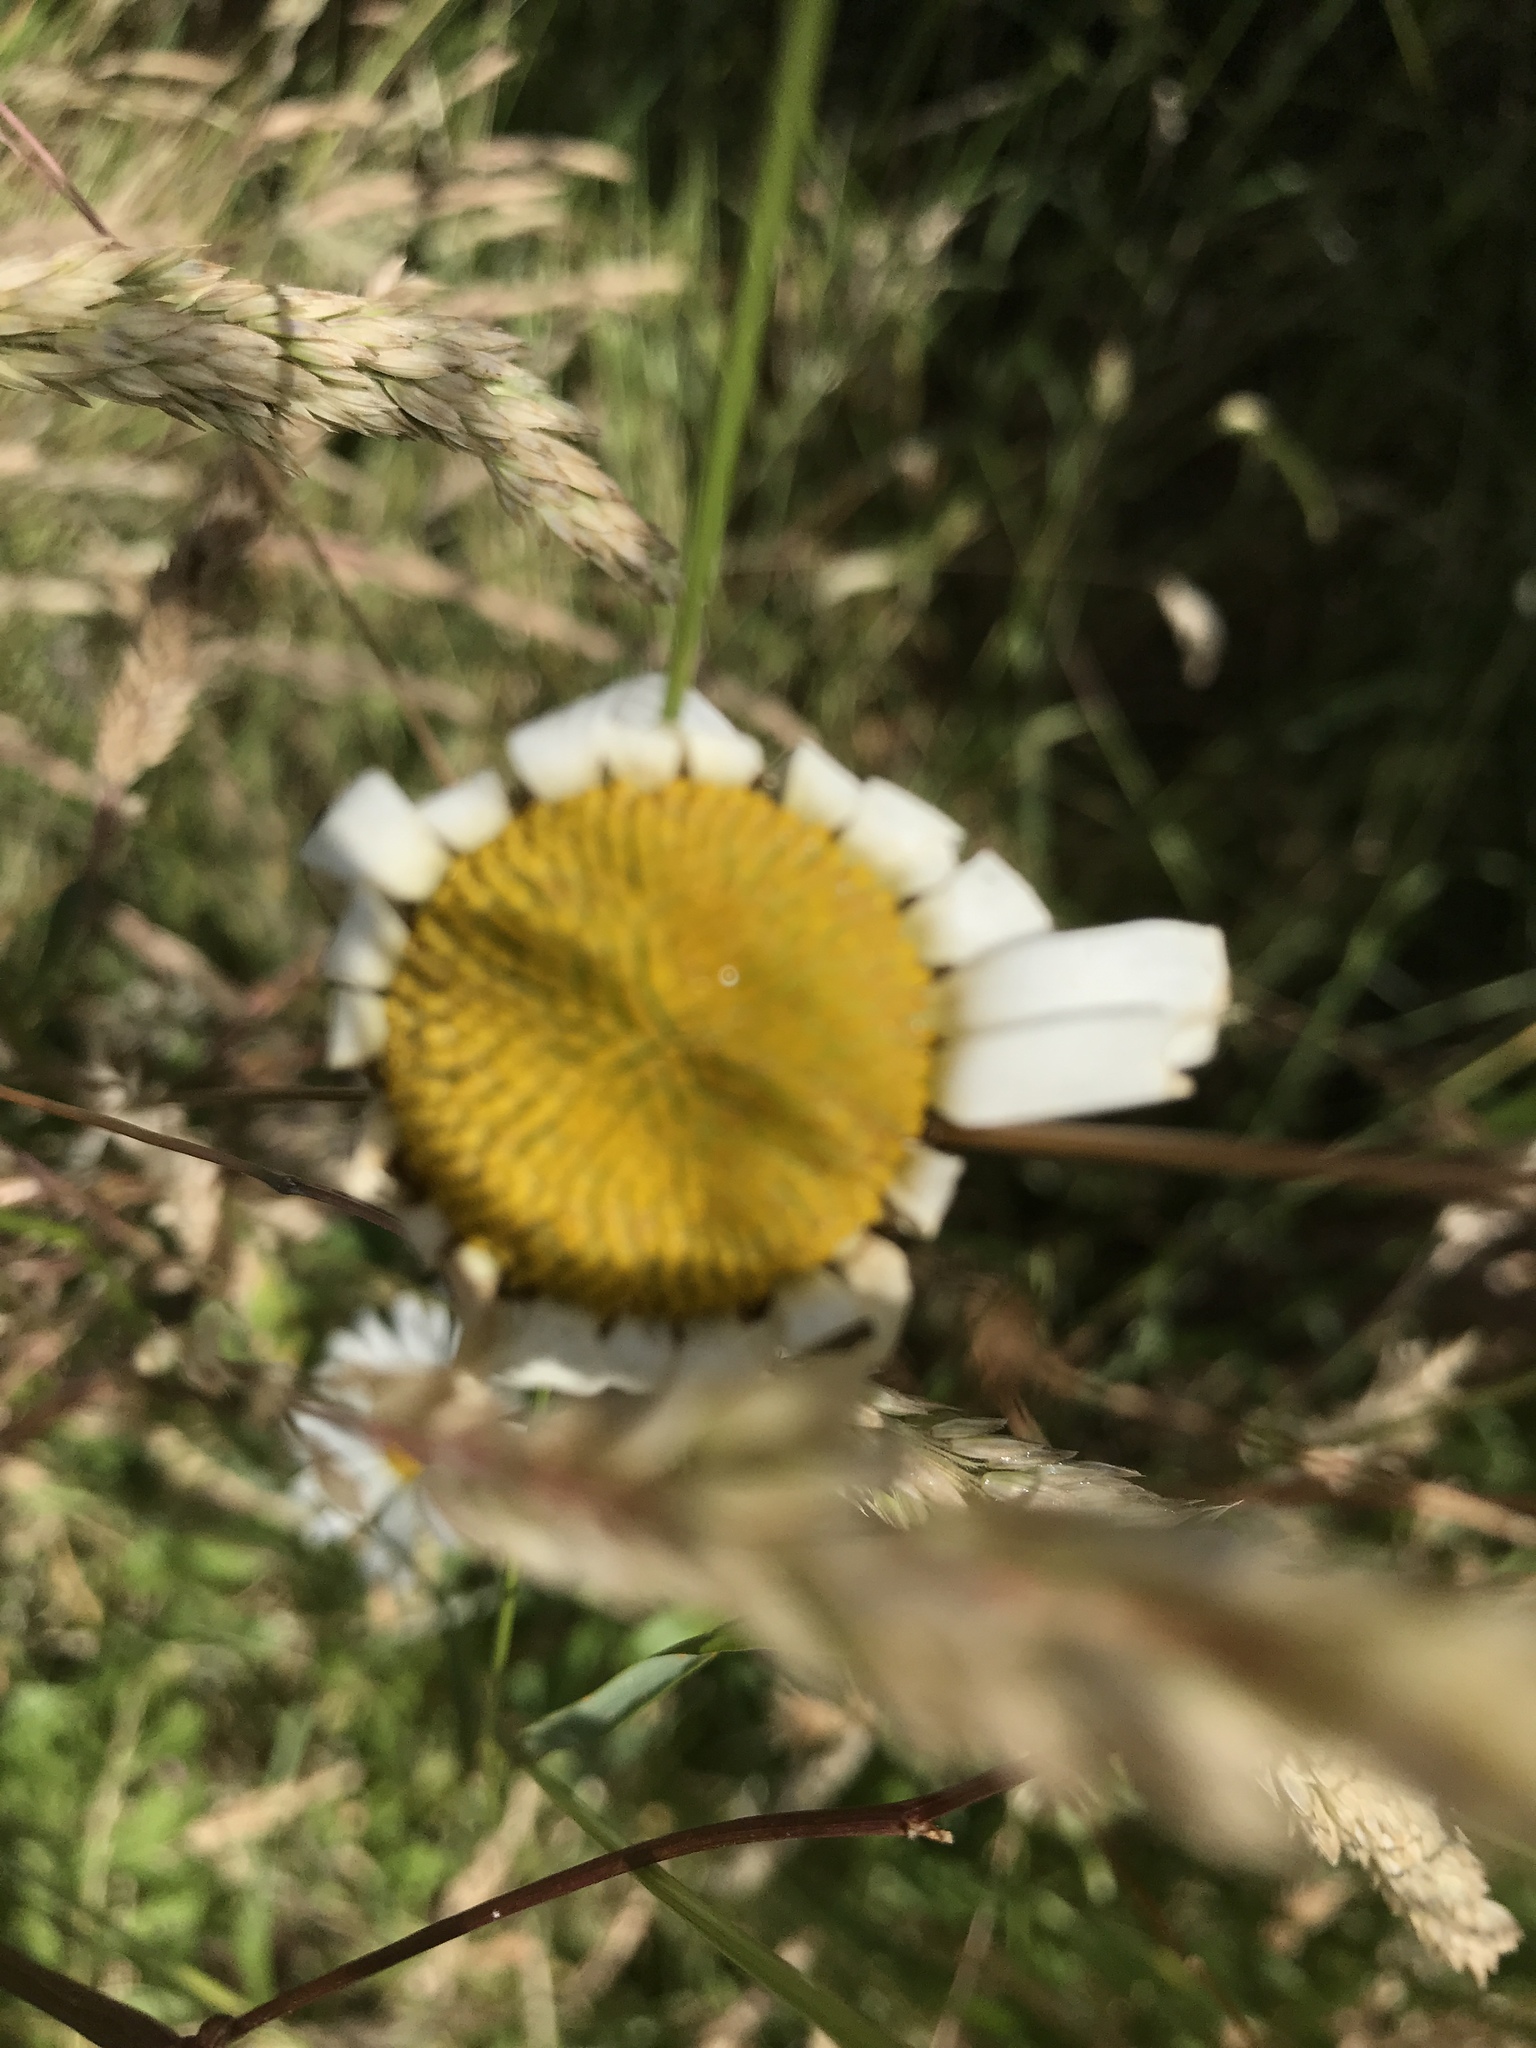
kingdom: Plantae
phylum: Tracheophyta
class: Magnoliopsida
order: Asterales
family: Asteraceae
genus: Leucanthemum
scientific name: Leucanthemum vulgare
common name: Oxeye daisy
